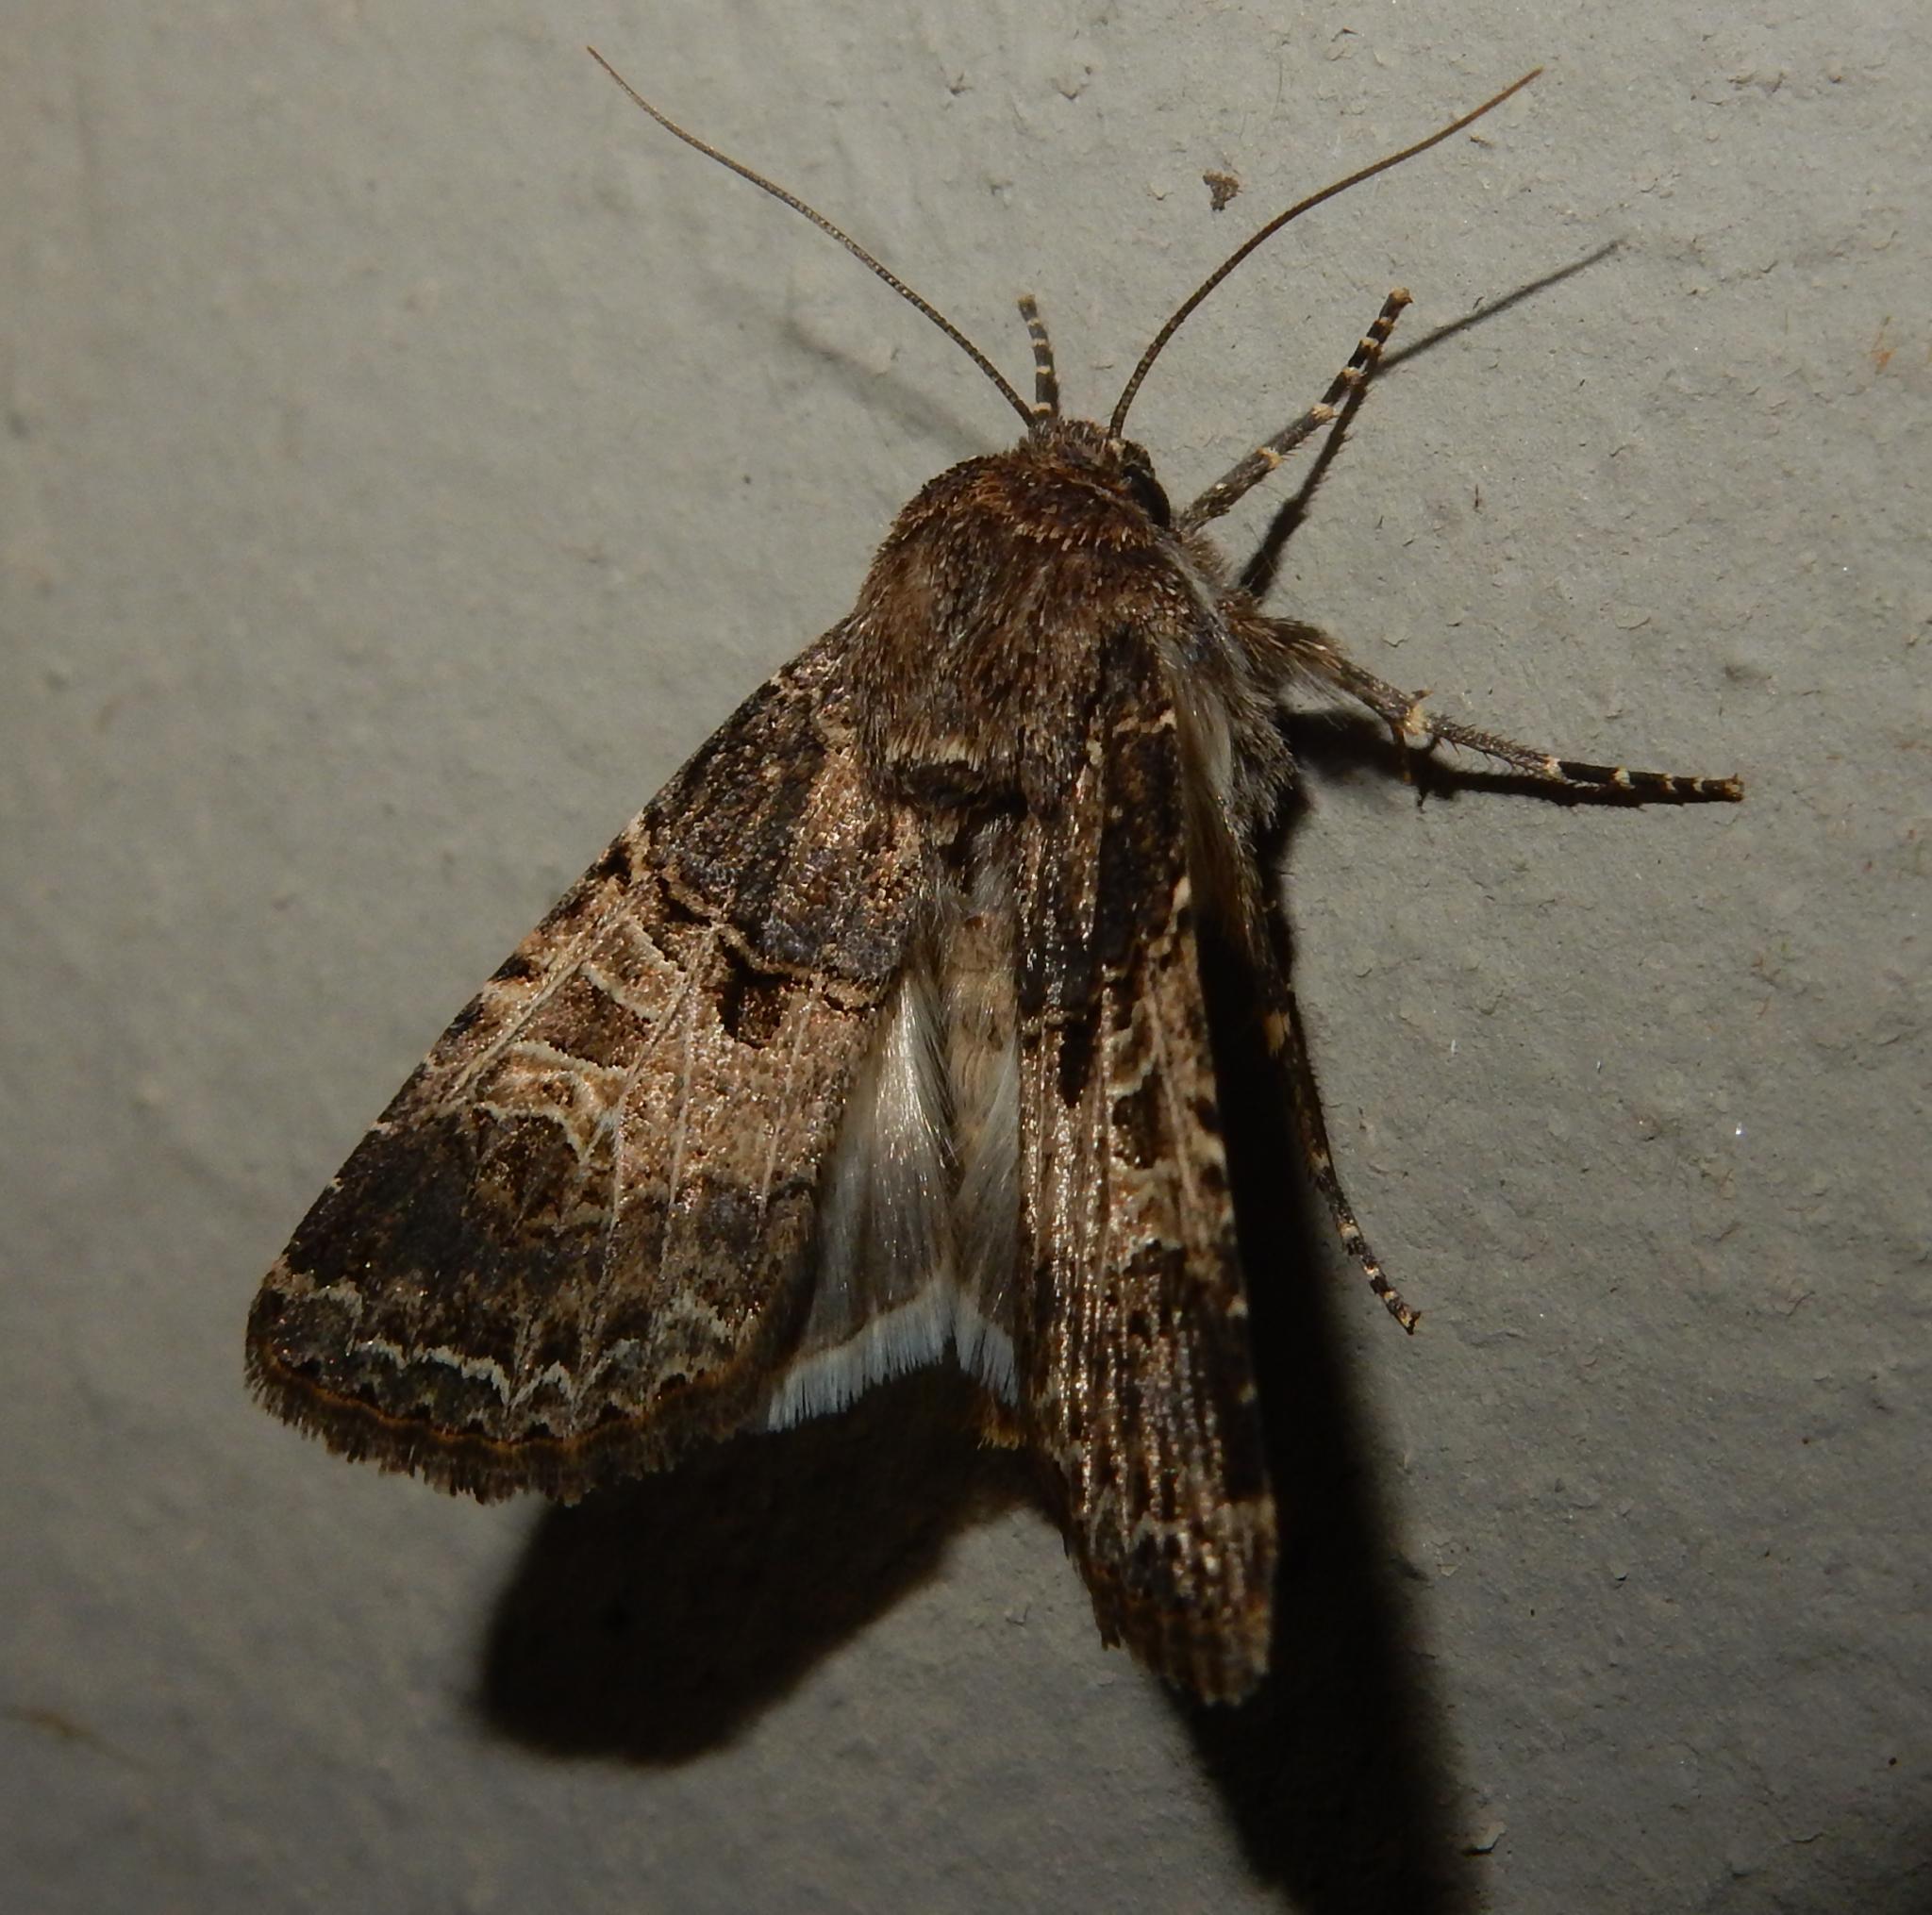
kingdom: Animalia
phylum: Arthropoda
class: Insecta
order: Lepidoptera
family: Noctuidae
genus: Hadena
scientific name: Hadena bulgeri
